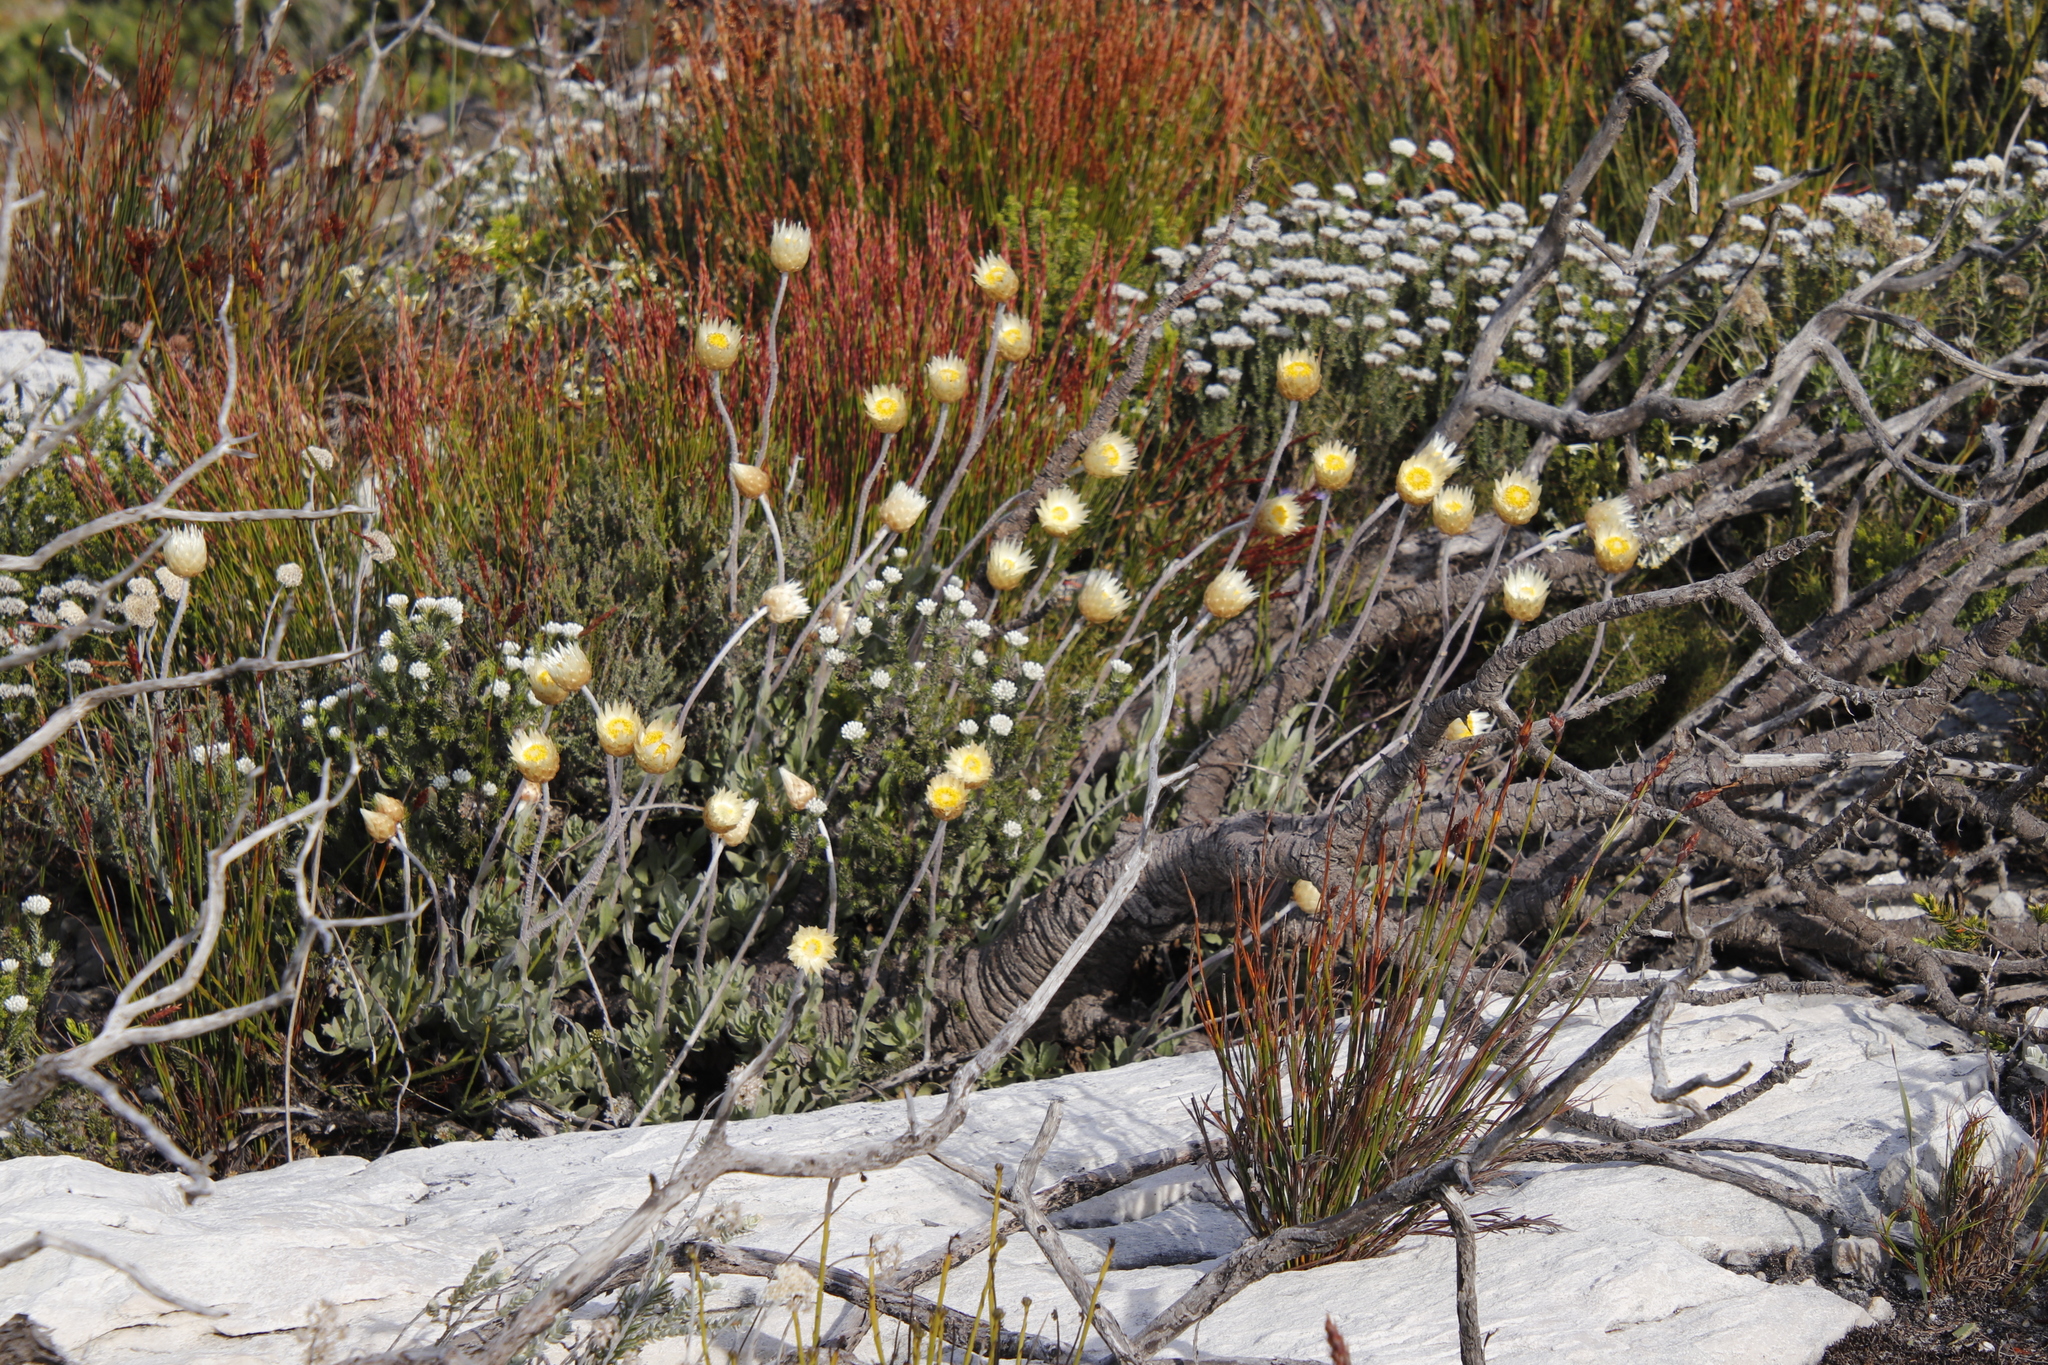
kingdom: Plantae
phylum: Tracheophyta
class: Magnoliopsida
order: Asterales
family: Asteraceae
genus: Syncarpha
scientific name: Syncarpha speciosissima
